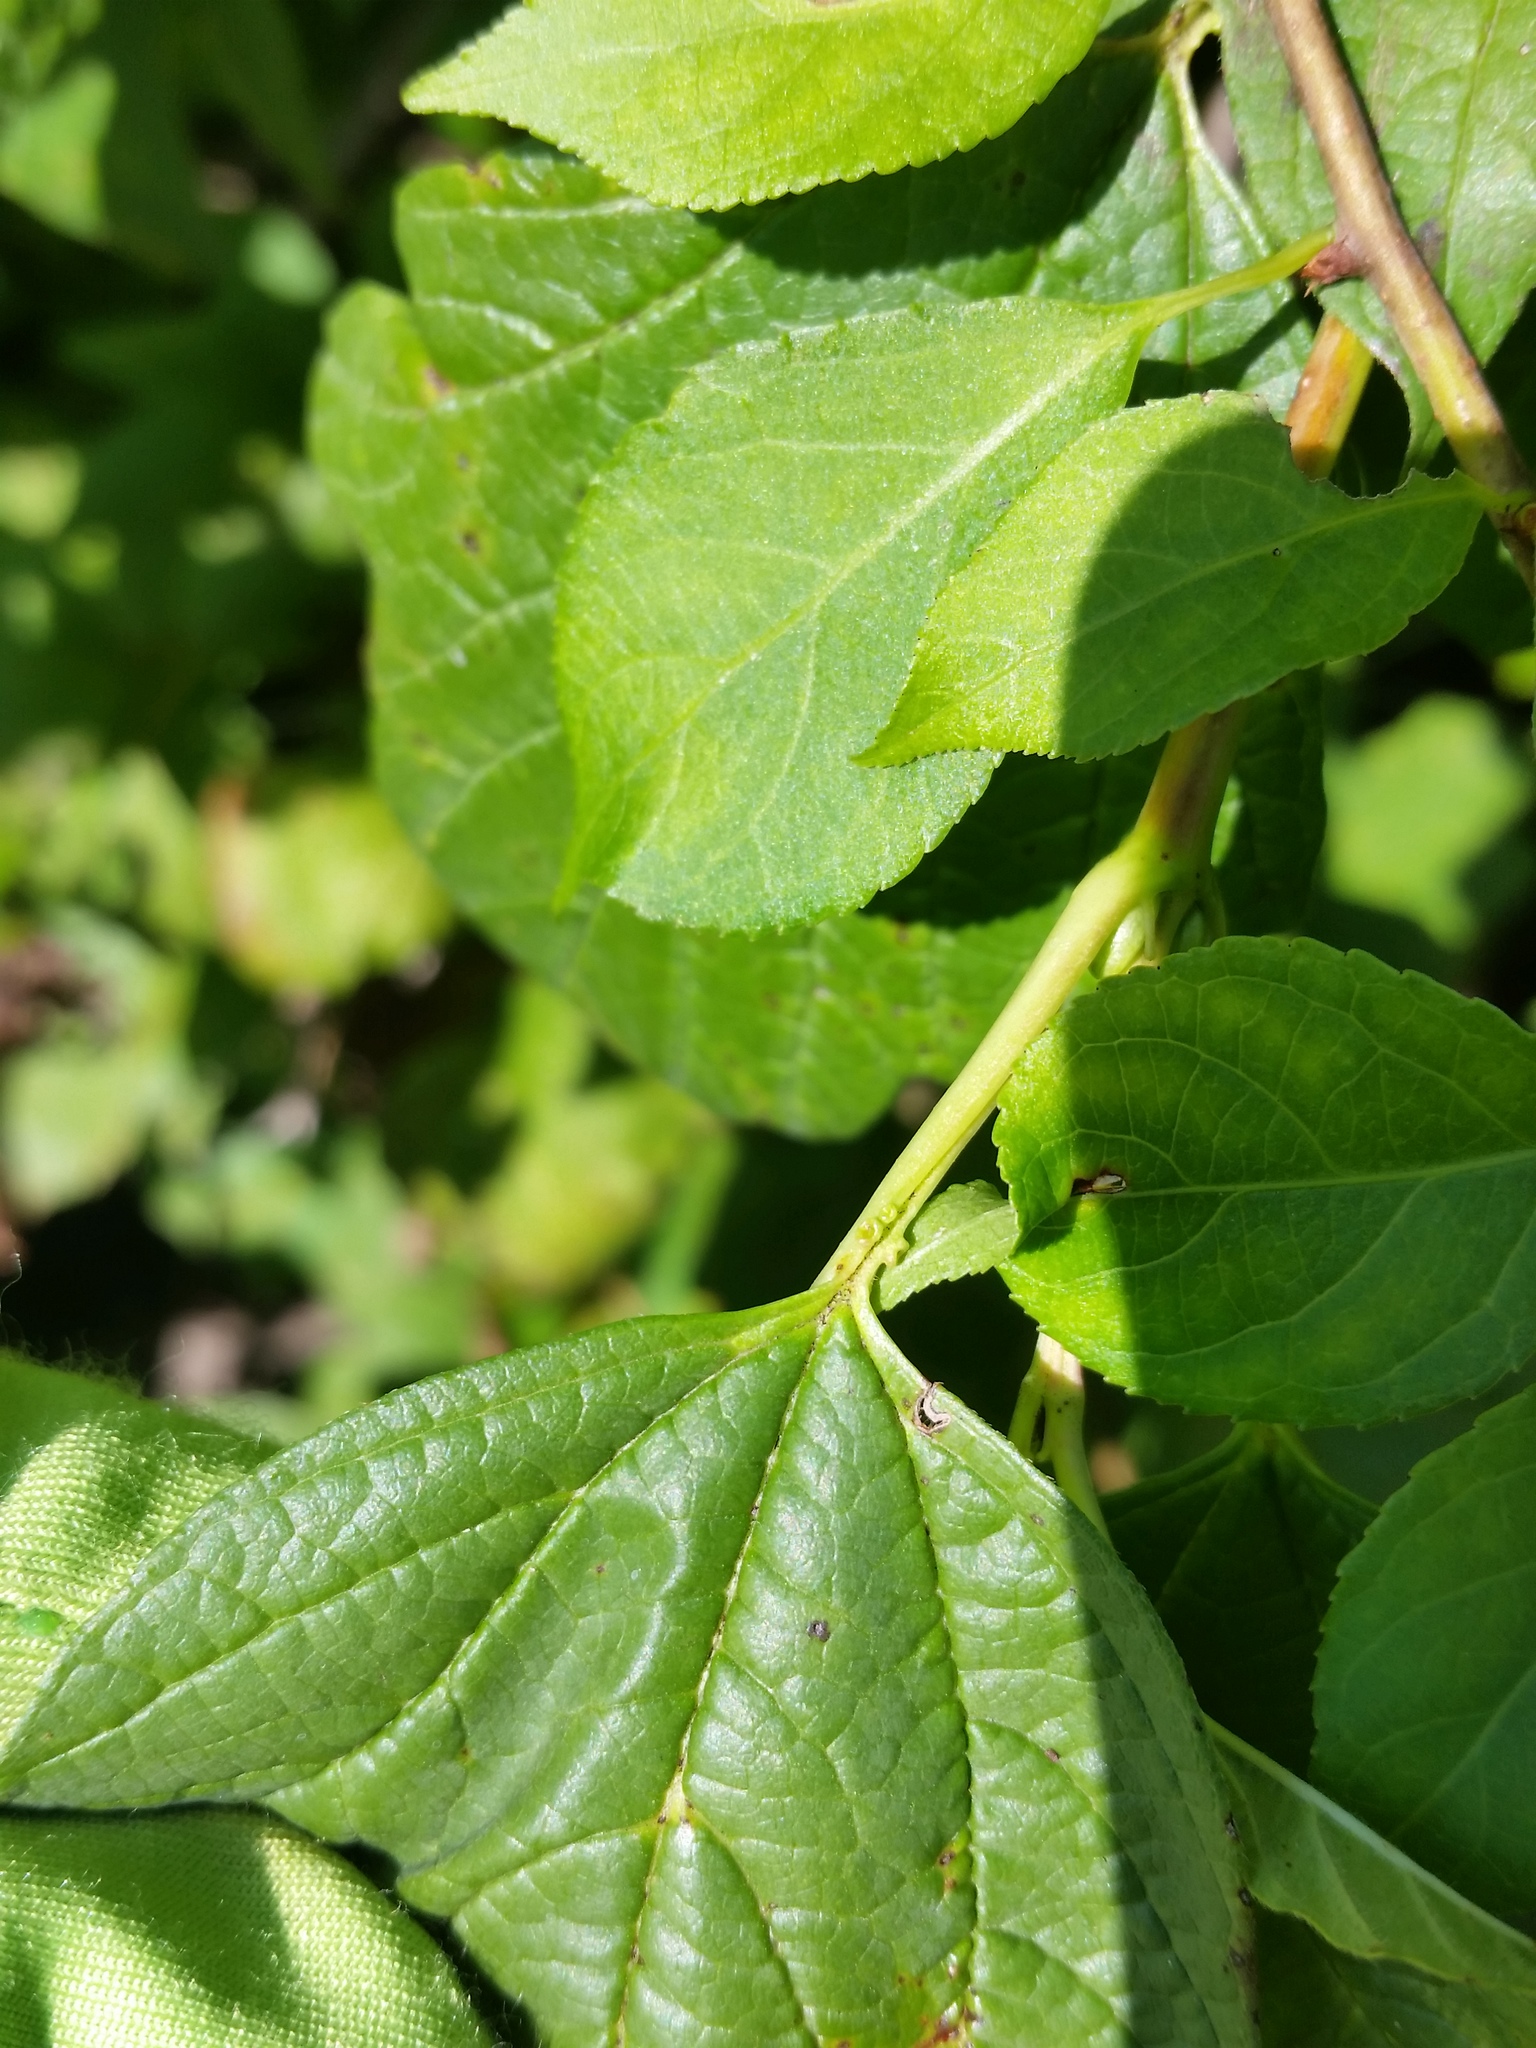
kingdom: Plantae
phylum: Tracheophyta
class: Magnoliopsida
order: Dipsacales
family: Viburnaceae
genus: Viburnum
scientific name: Viburnum opulus
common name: Guelder-rose
